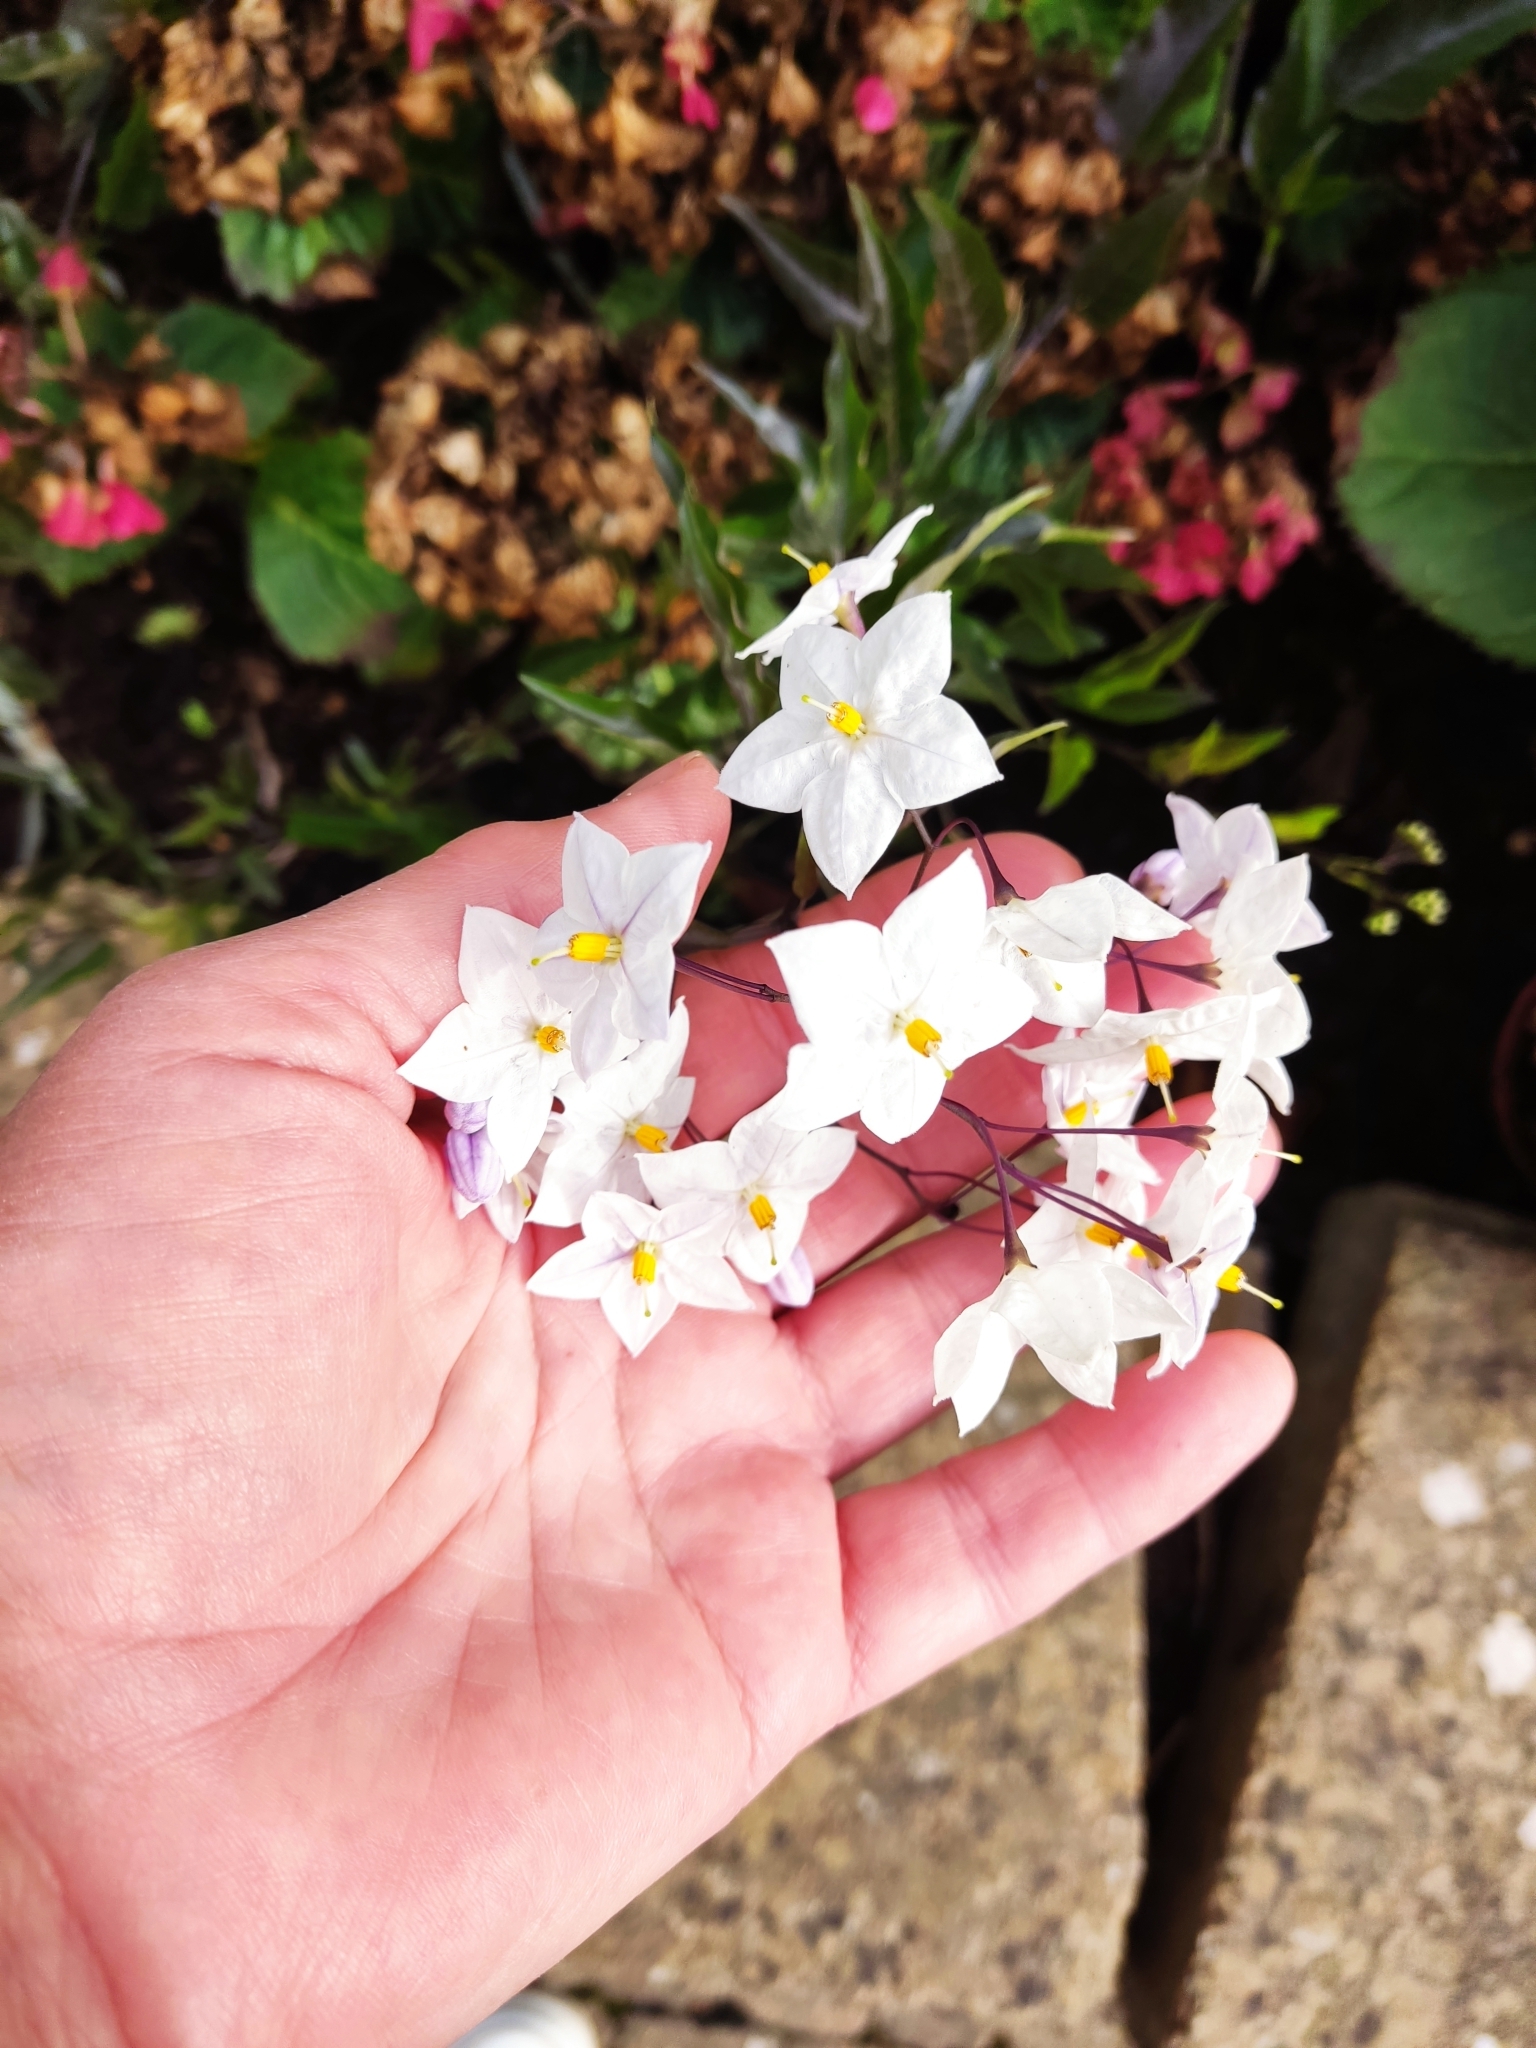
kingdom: Plantae
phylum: Tracheophyta
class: Magnoliopsida
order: Solanales
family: Solanaceae
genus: Solanum
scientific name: Solanum laxum
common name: Nightshade
